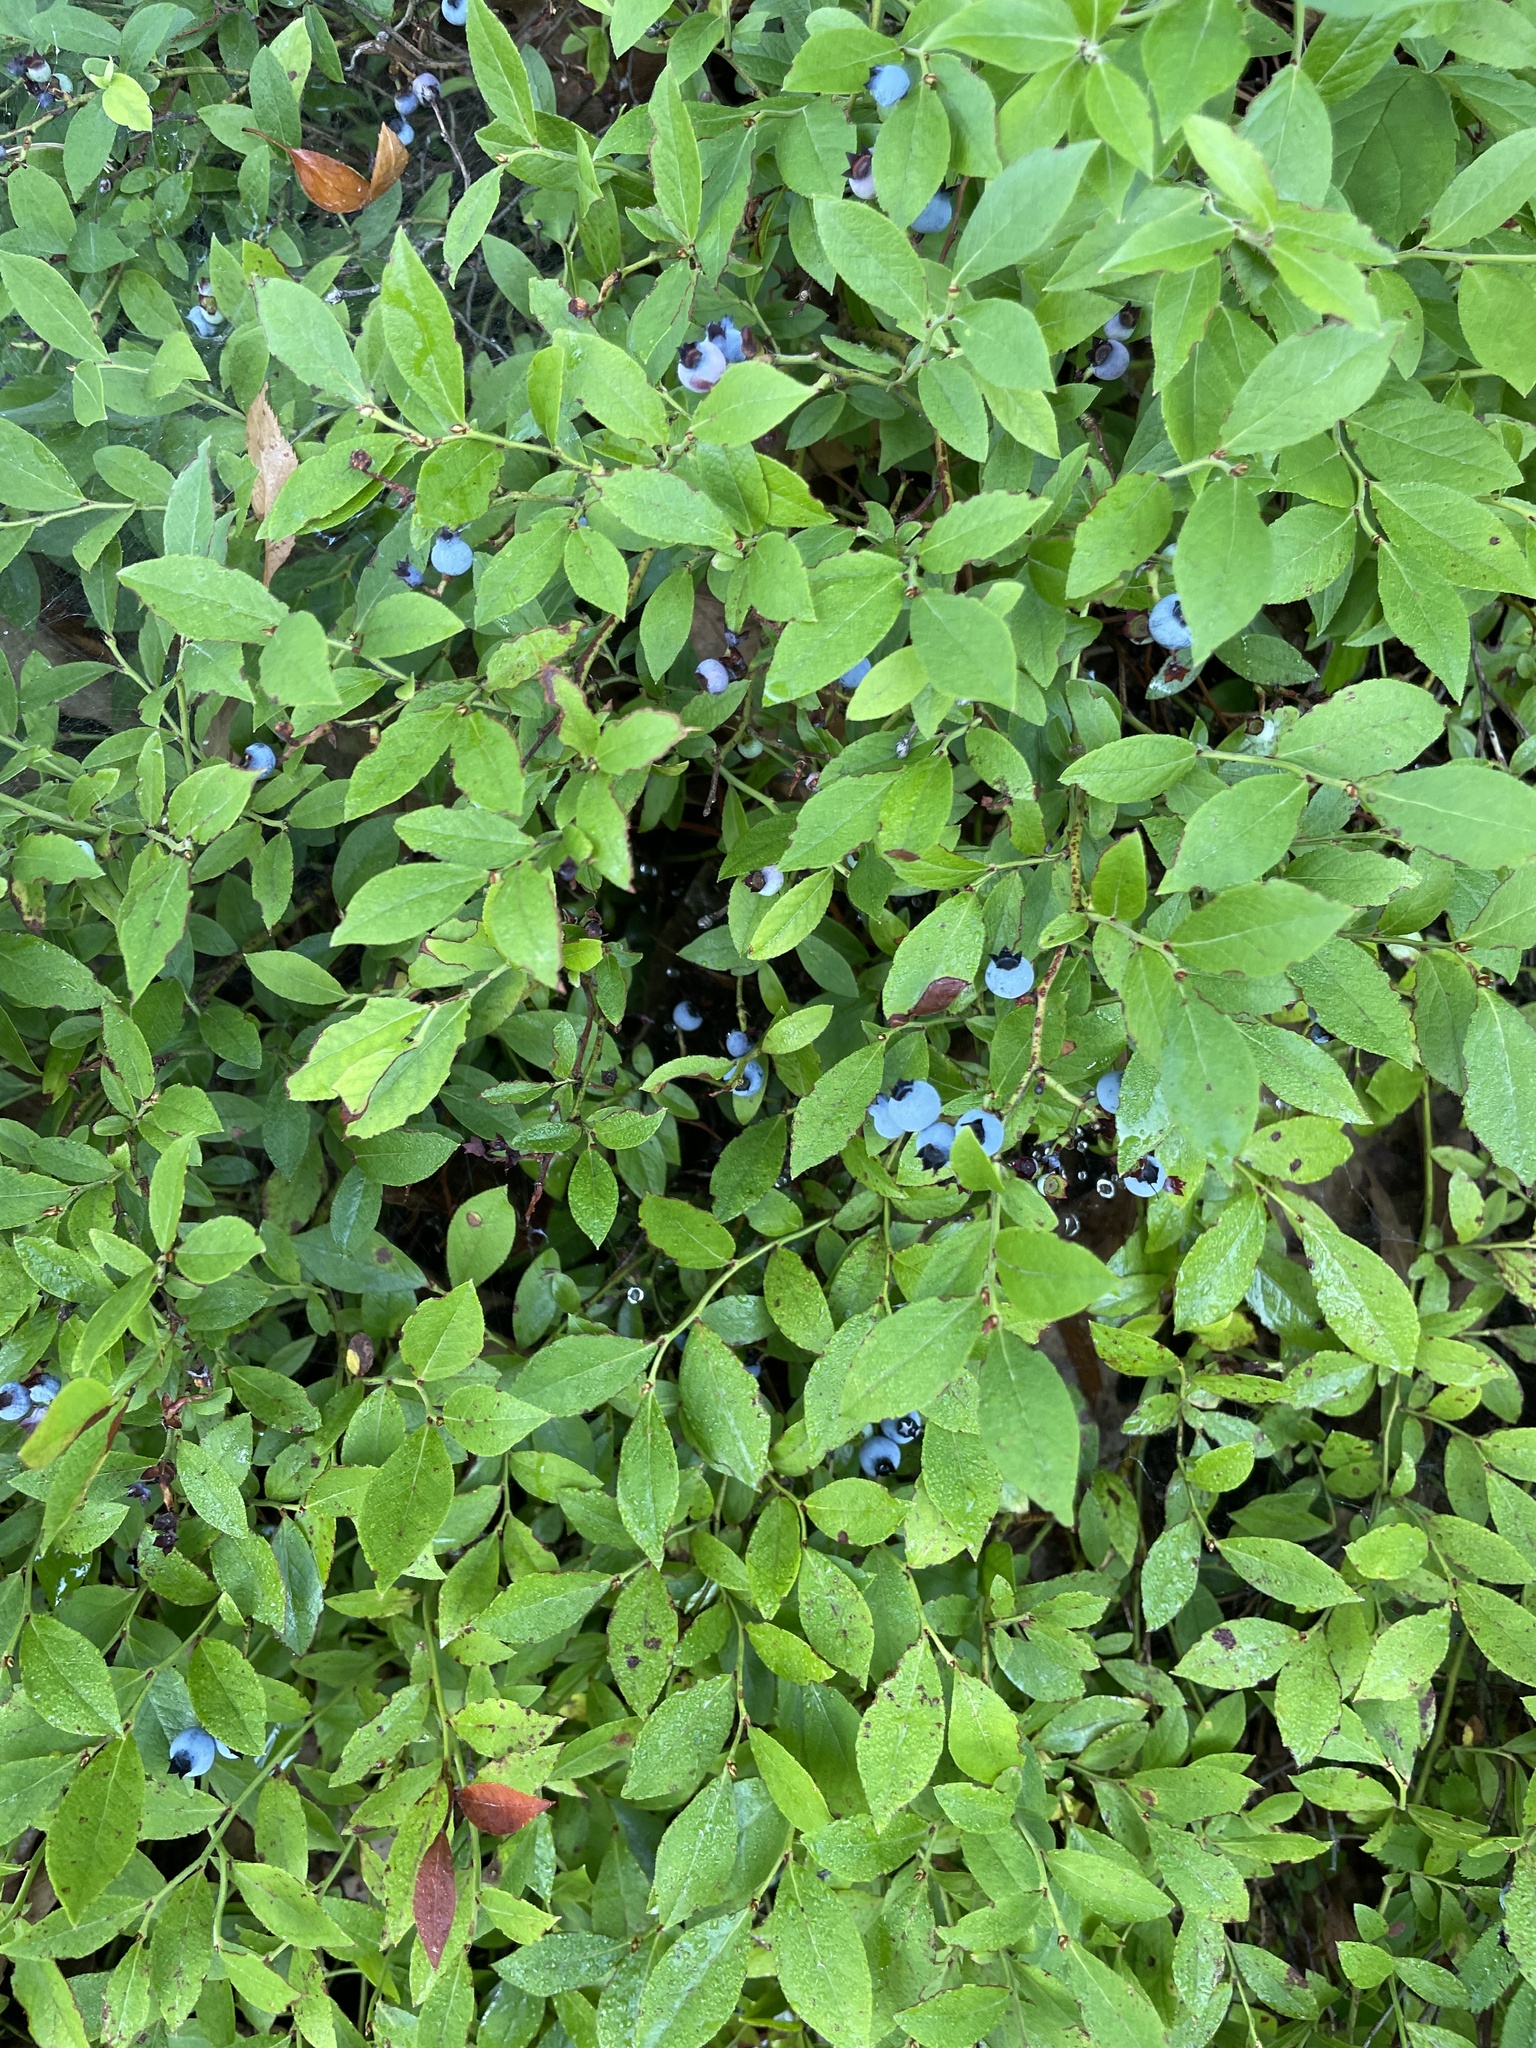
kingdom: Plantae
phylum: Tracheophyta
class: Magnoliopsida
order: Ericales
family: Ericaceae
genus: Vaccinium
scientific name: Vaccinium angustifolium
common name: Early lowbush blueberry
